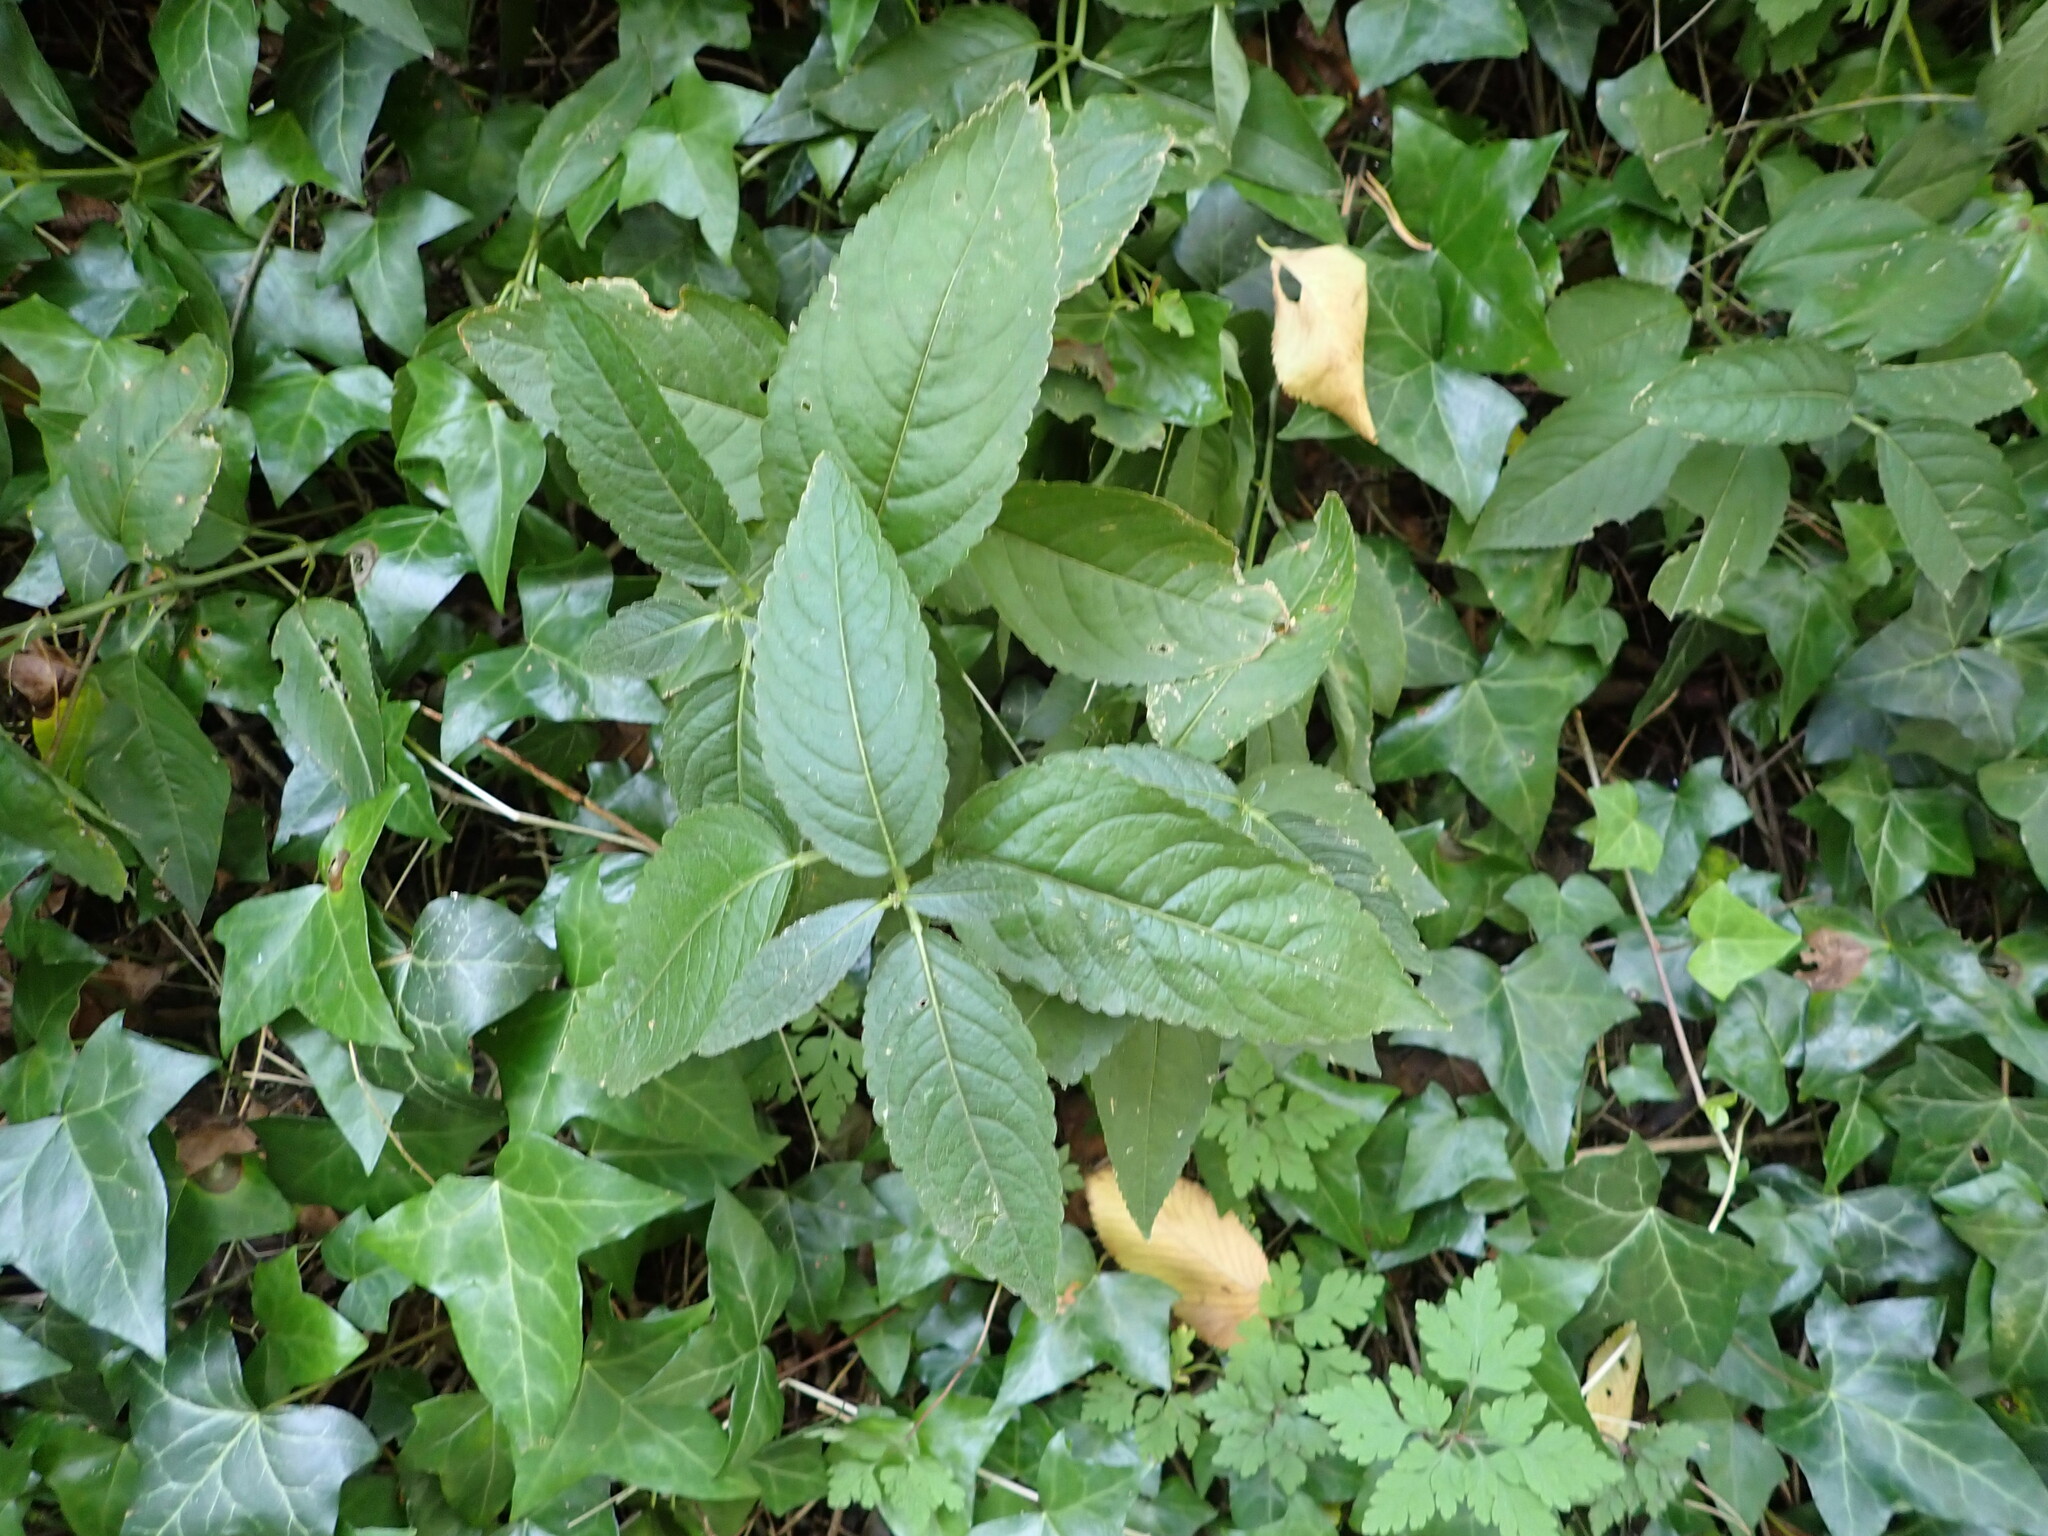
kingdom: Plantae
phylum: Tracheophyta
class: Magnoliopsida
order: Malpighiales
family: Euphorbiaceae
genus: Mercurialis
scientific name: Mercurialis perennis
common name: Dog mercury
